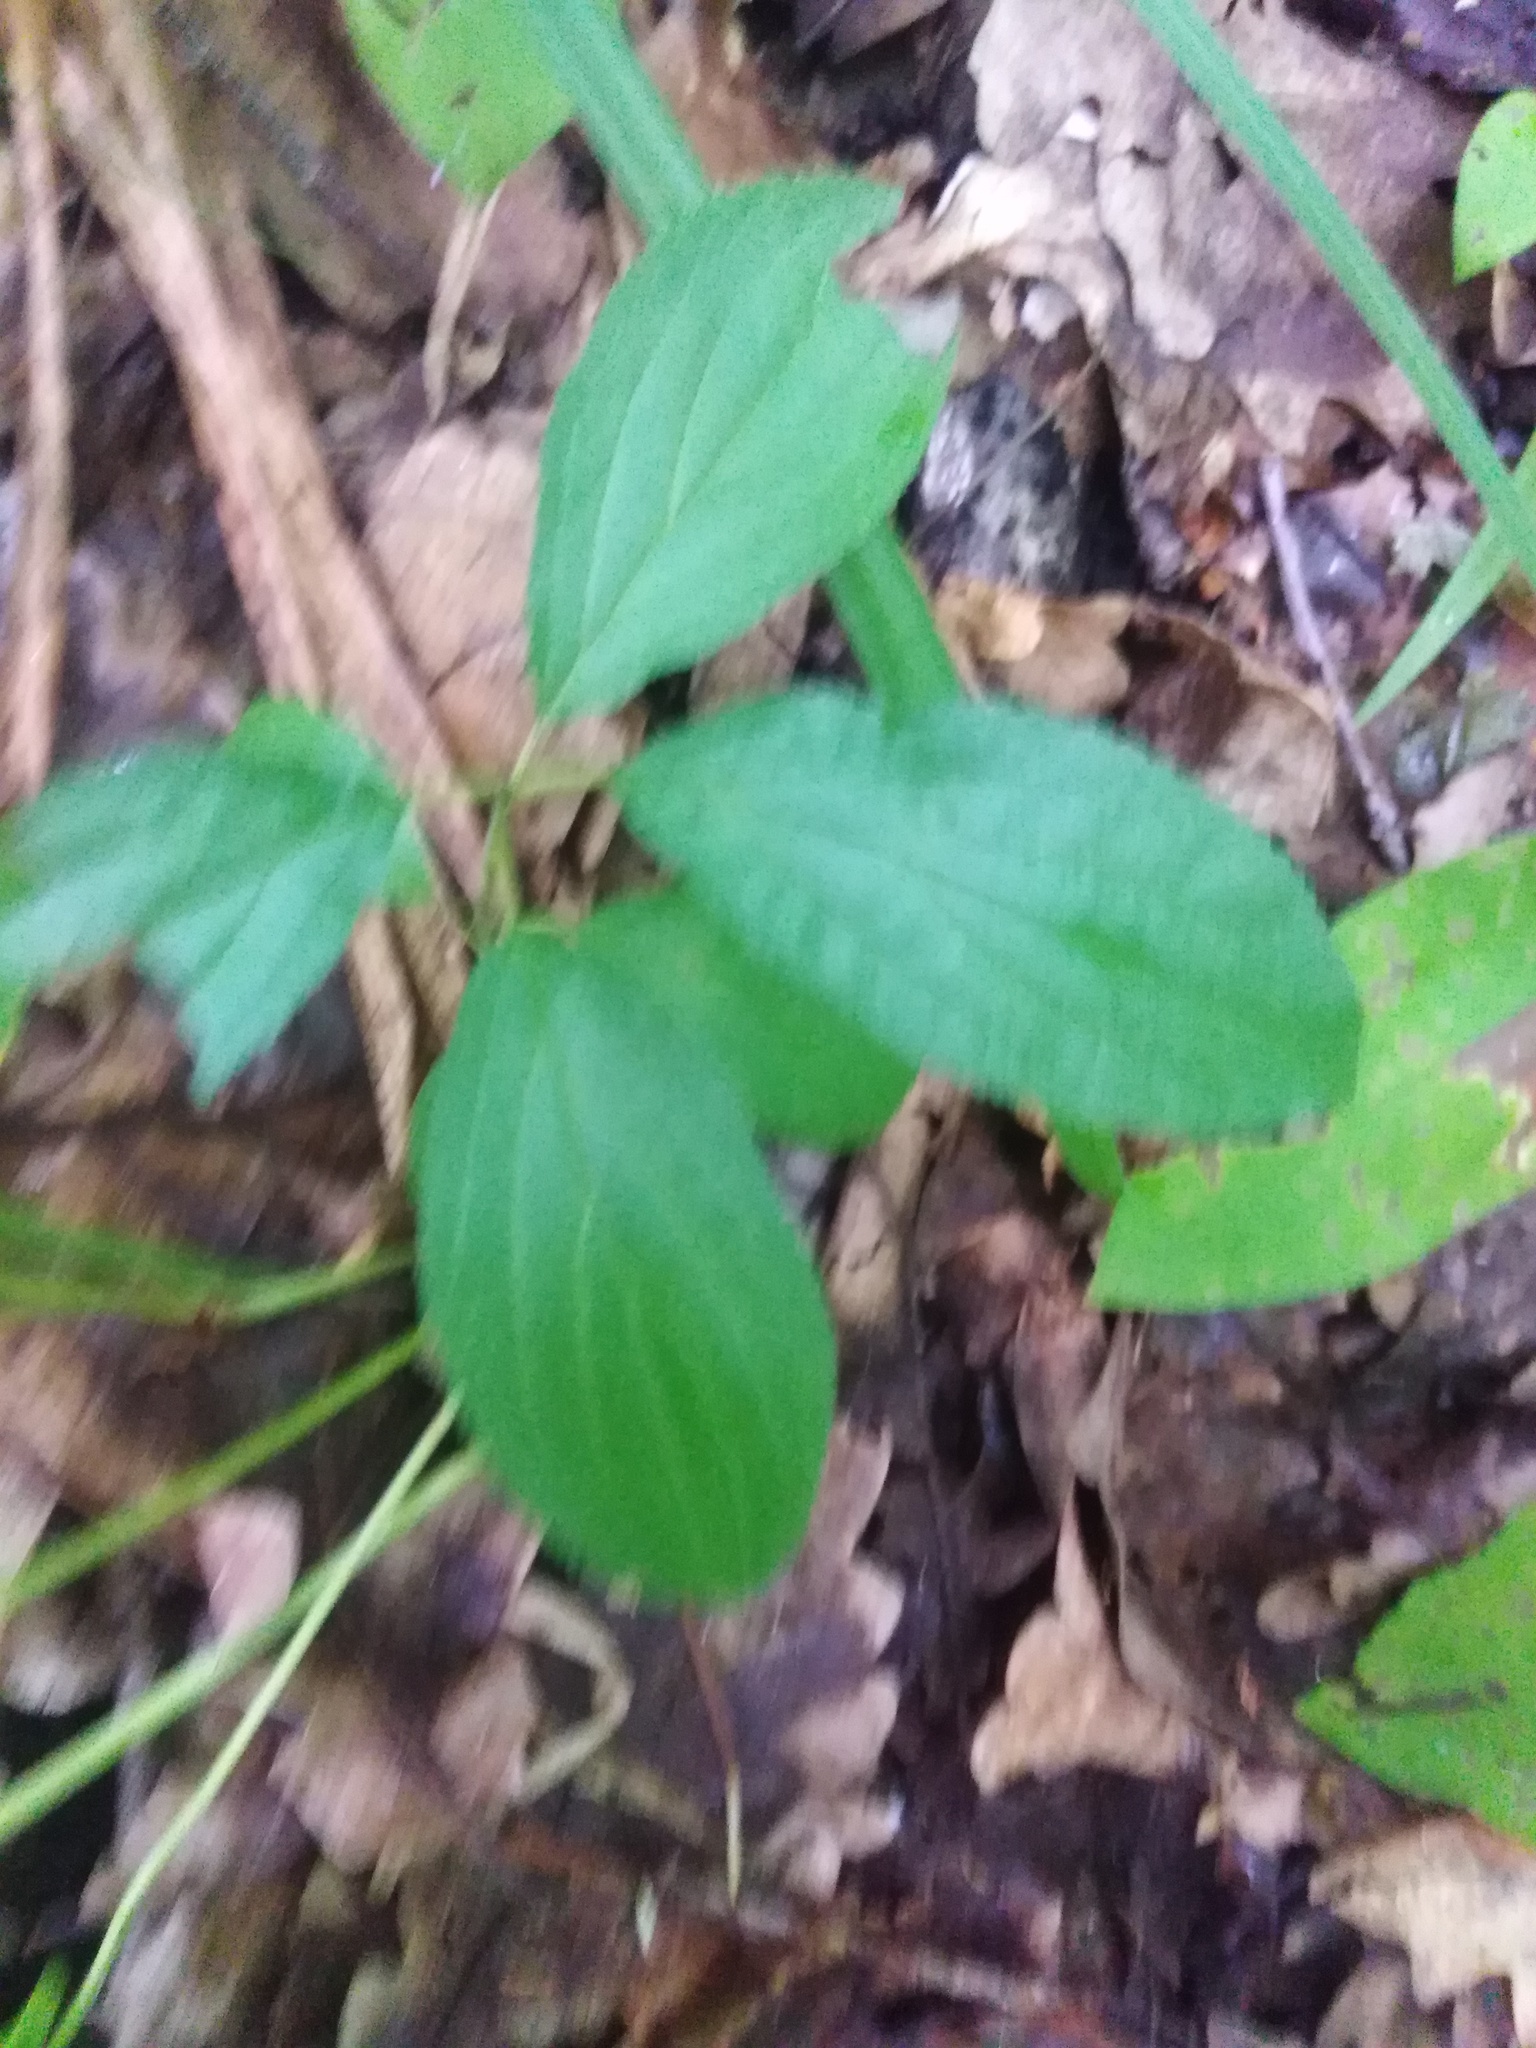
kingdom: Plantae
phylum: Tracheophyta
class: Magnoliopsida
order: Rosales
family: Rhamnaceae
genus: Rhamnus
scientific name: Rhamnus cathartica
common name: Common buckthorn
